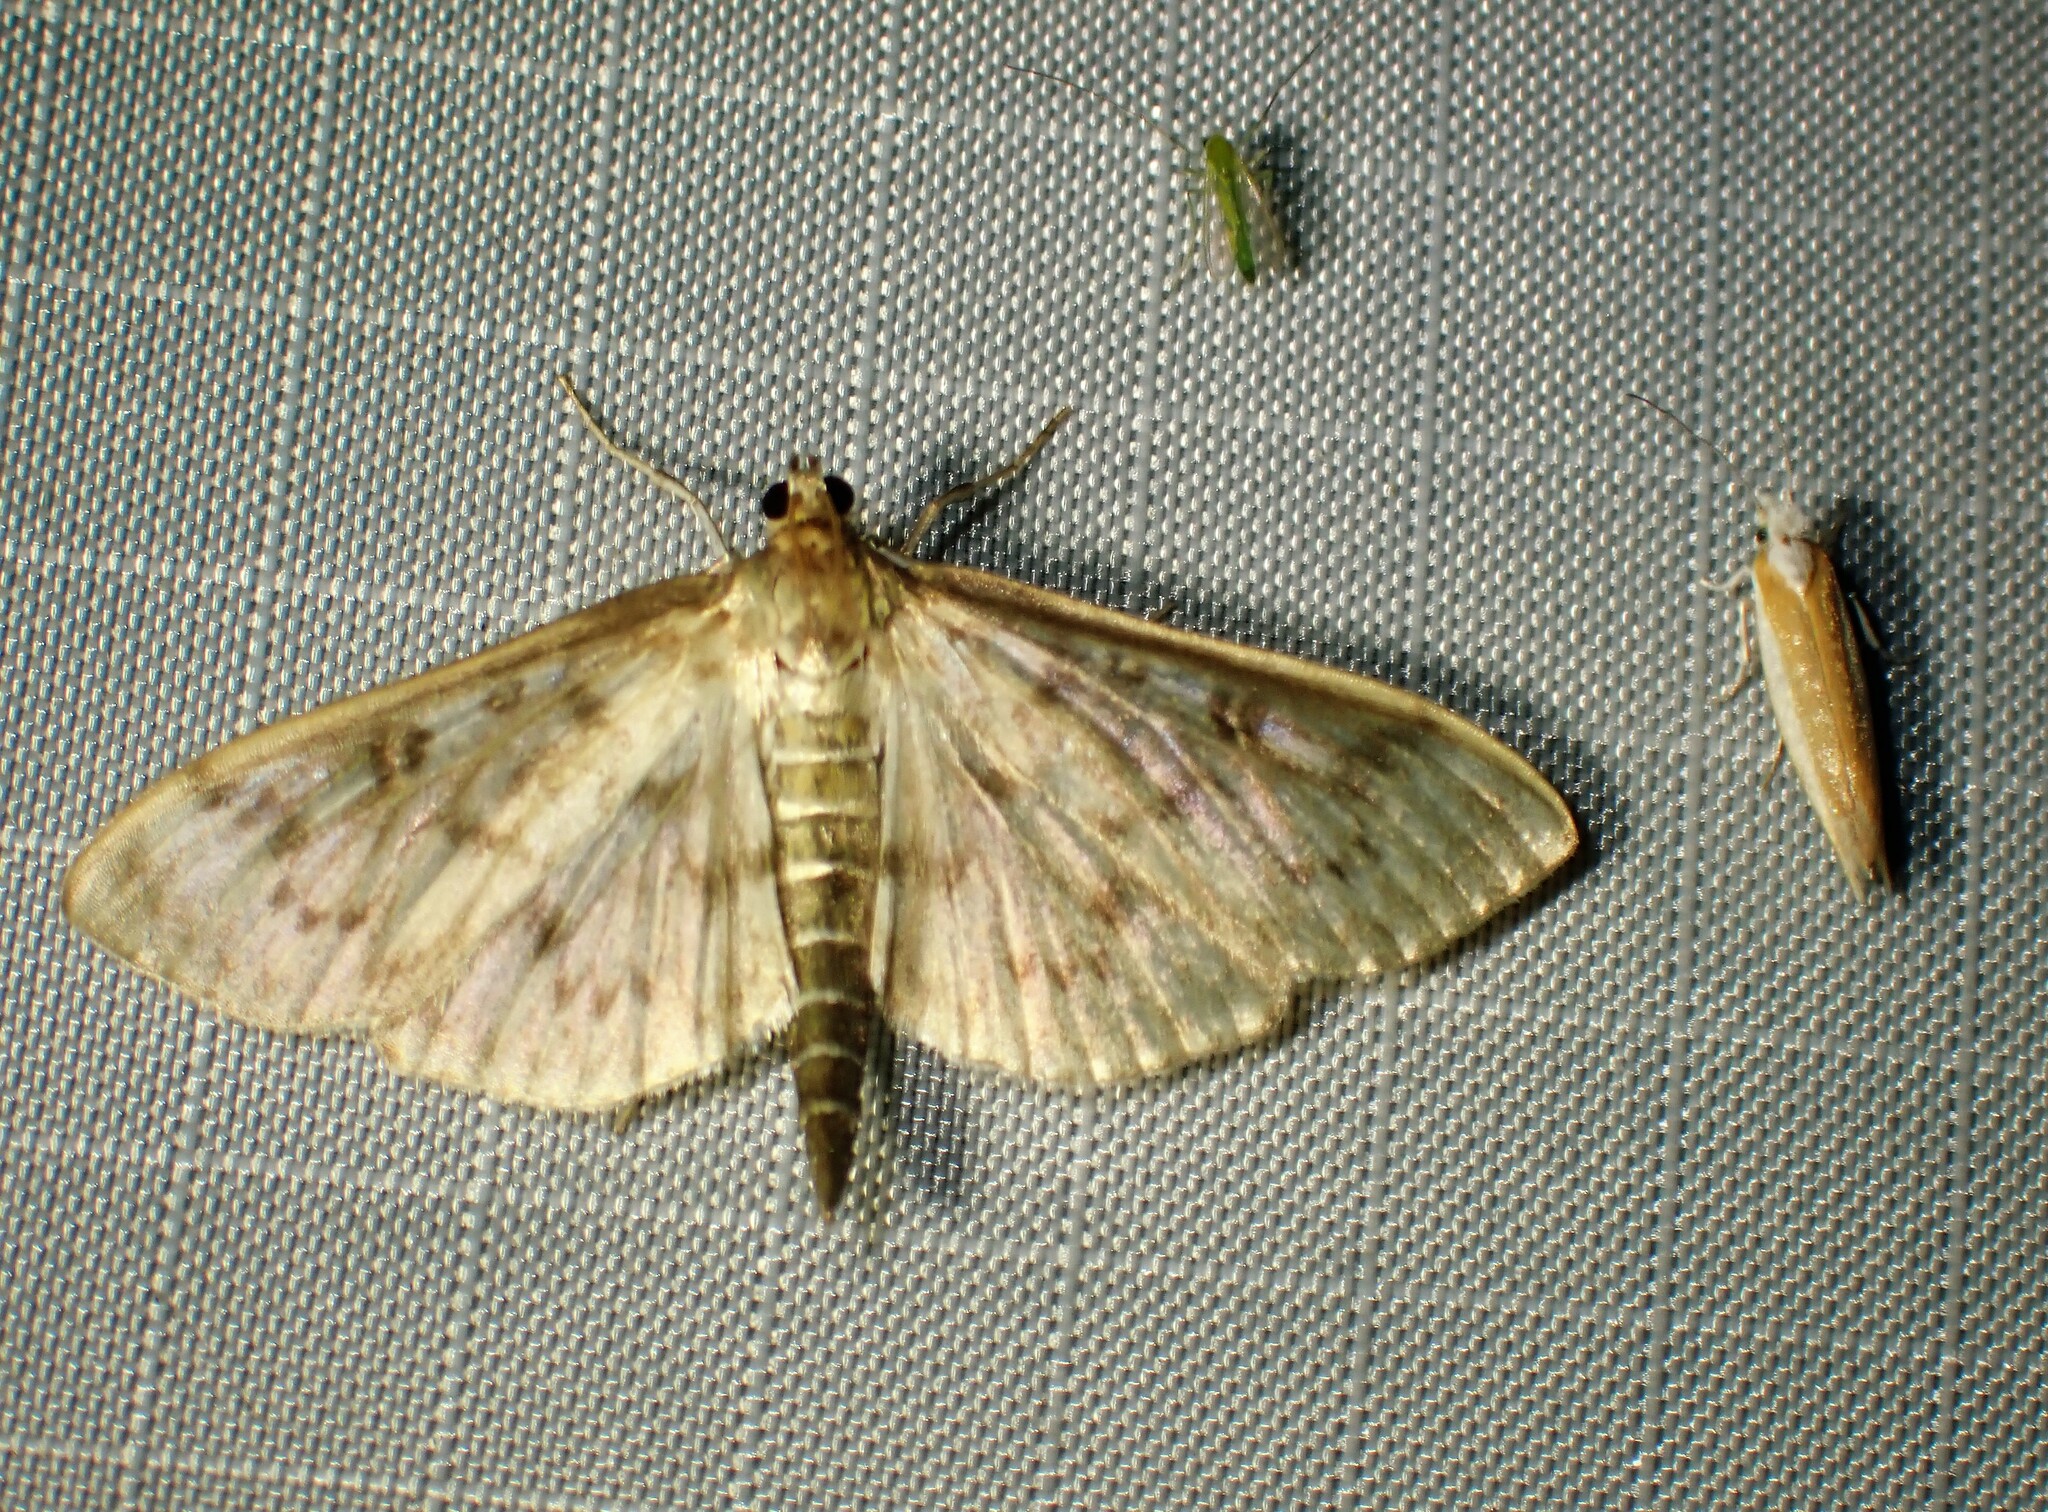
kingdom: Animalia
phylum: Arthropoda
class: Insecta
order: Lepidoptera
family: Crambidae
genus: Herpetogramma
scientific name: Herpetogramma aquilonalis
